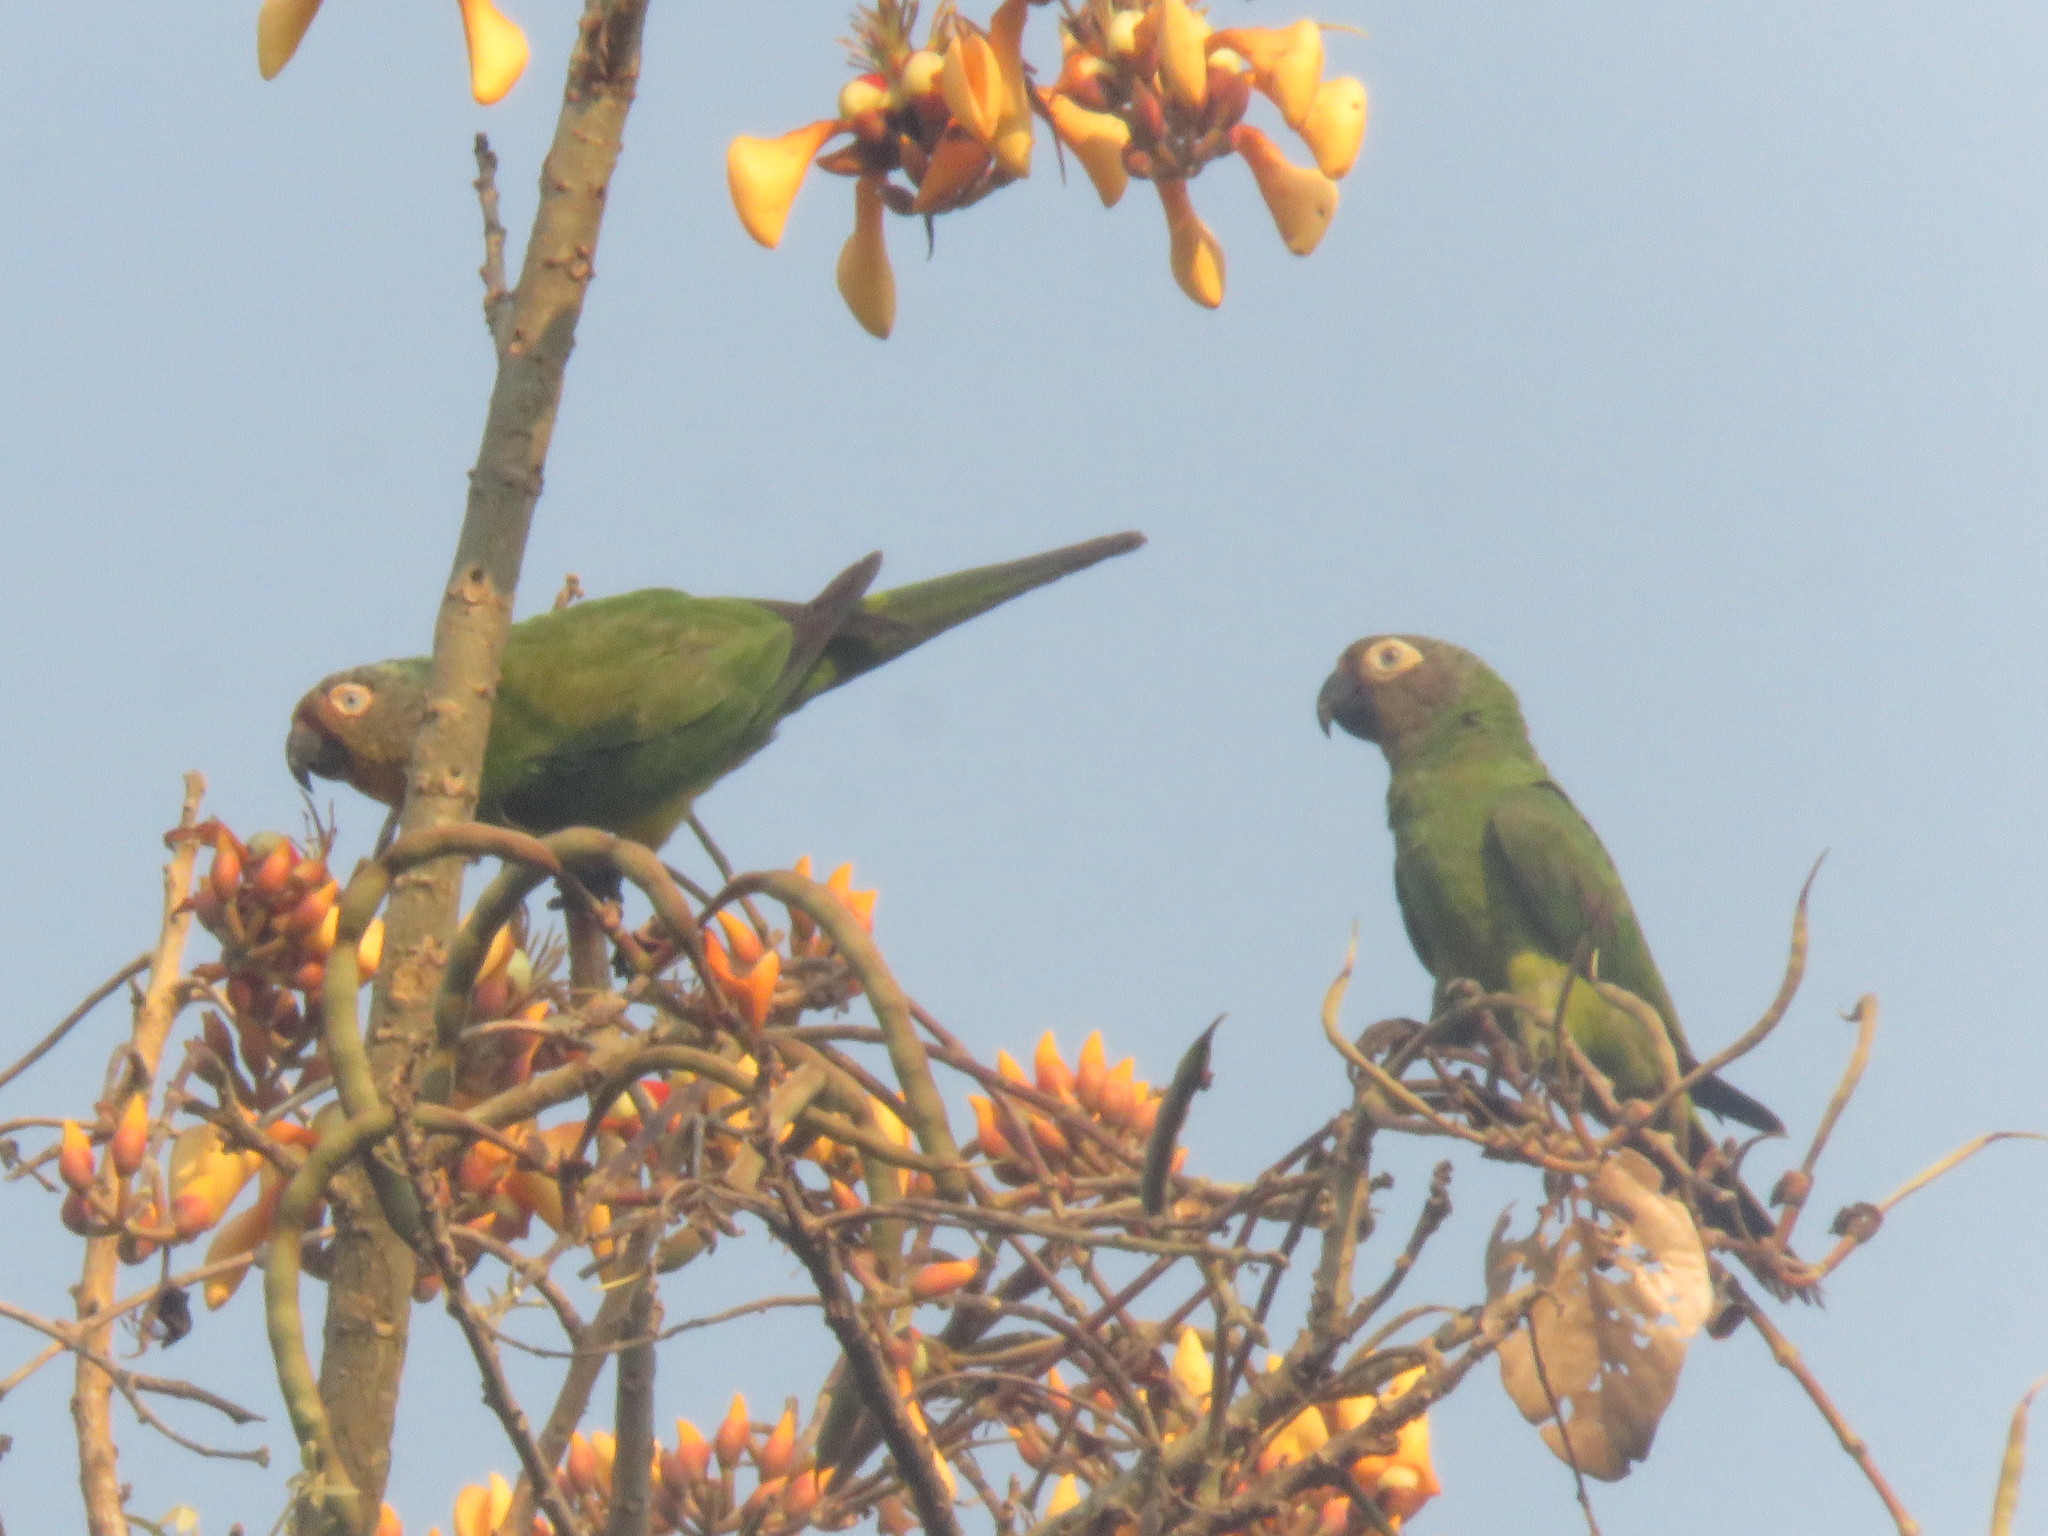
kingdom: Animalia
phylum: Chordata
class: Aves
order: Psittaciformes
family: Psittacidae
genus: Aratinga
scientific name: Aratinga weddellii
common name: Dusky-headed parakeet
